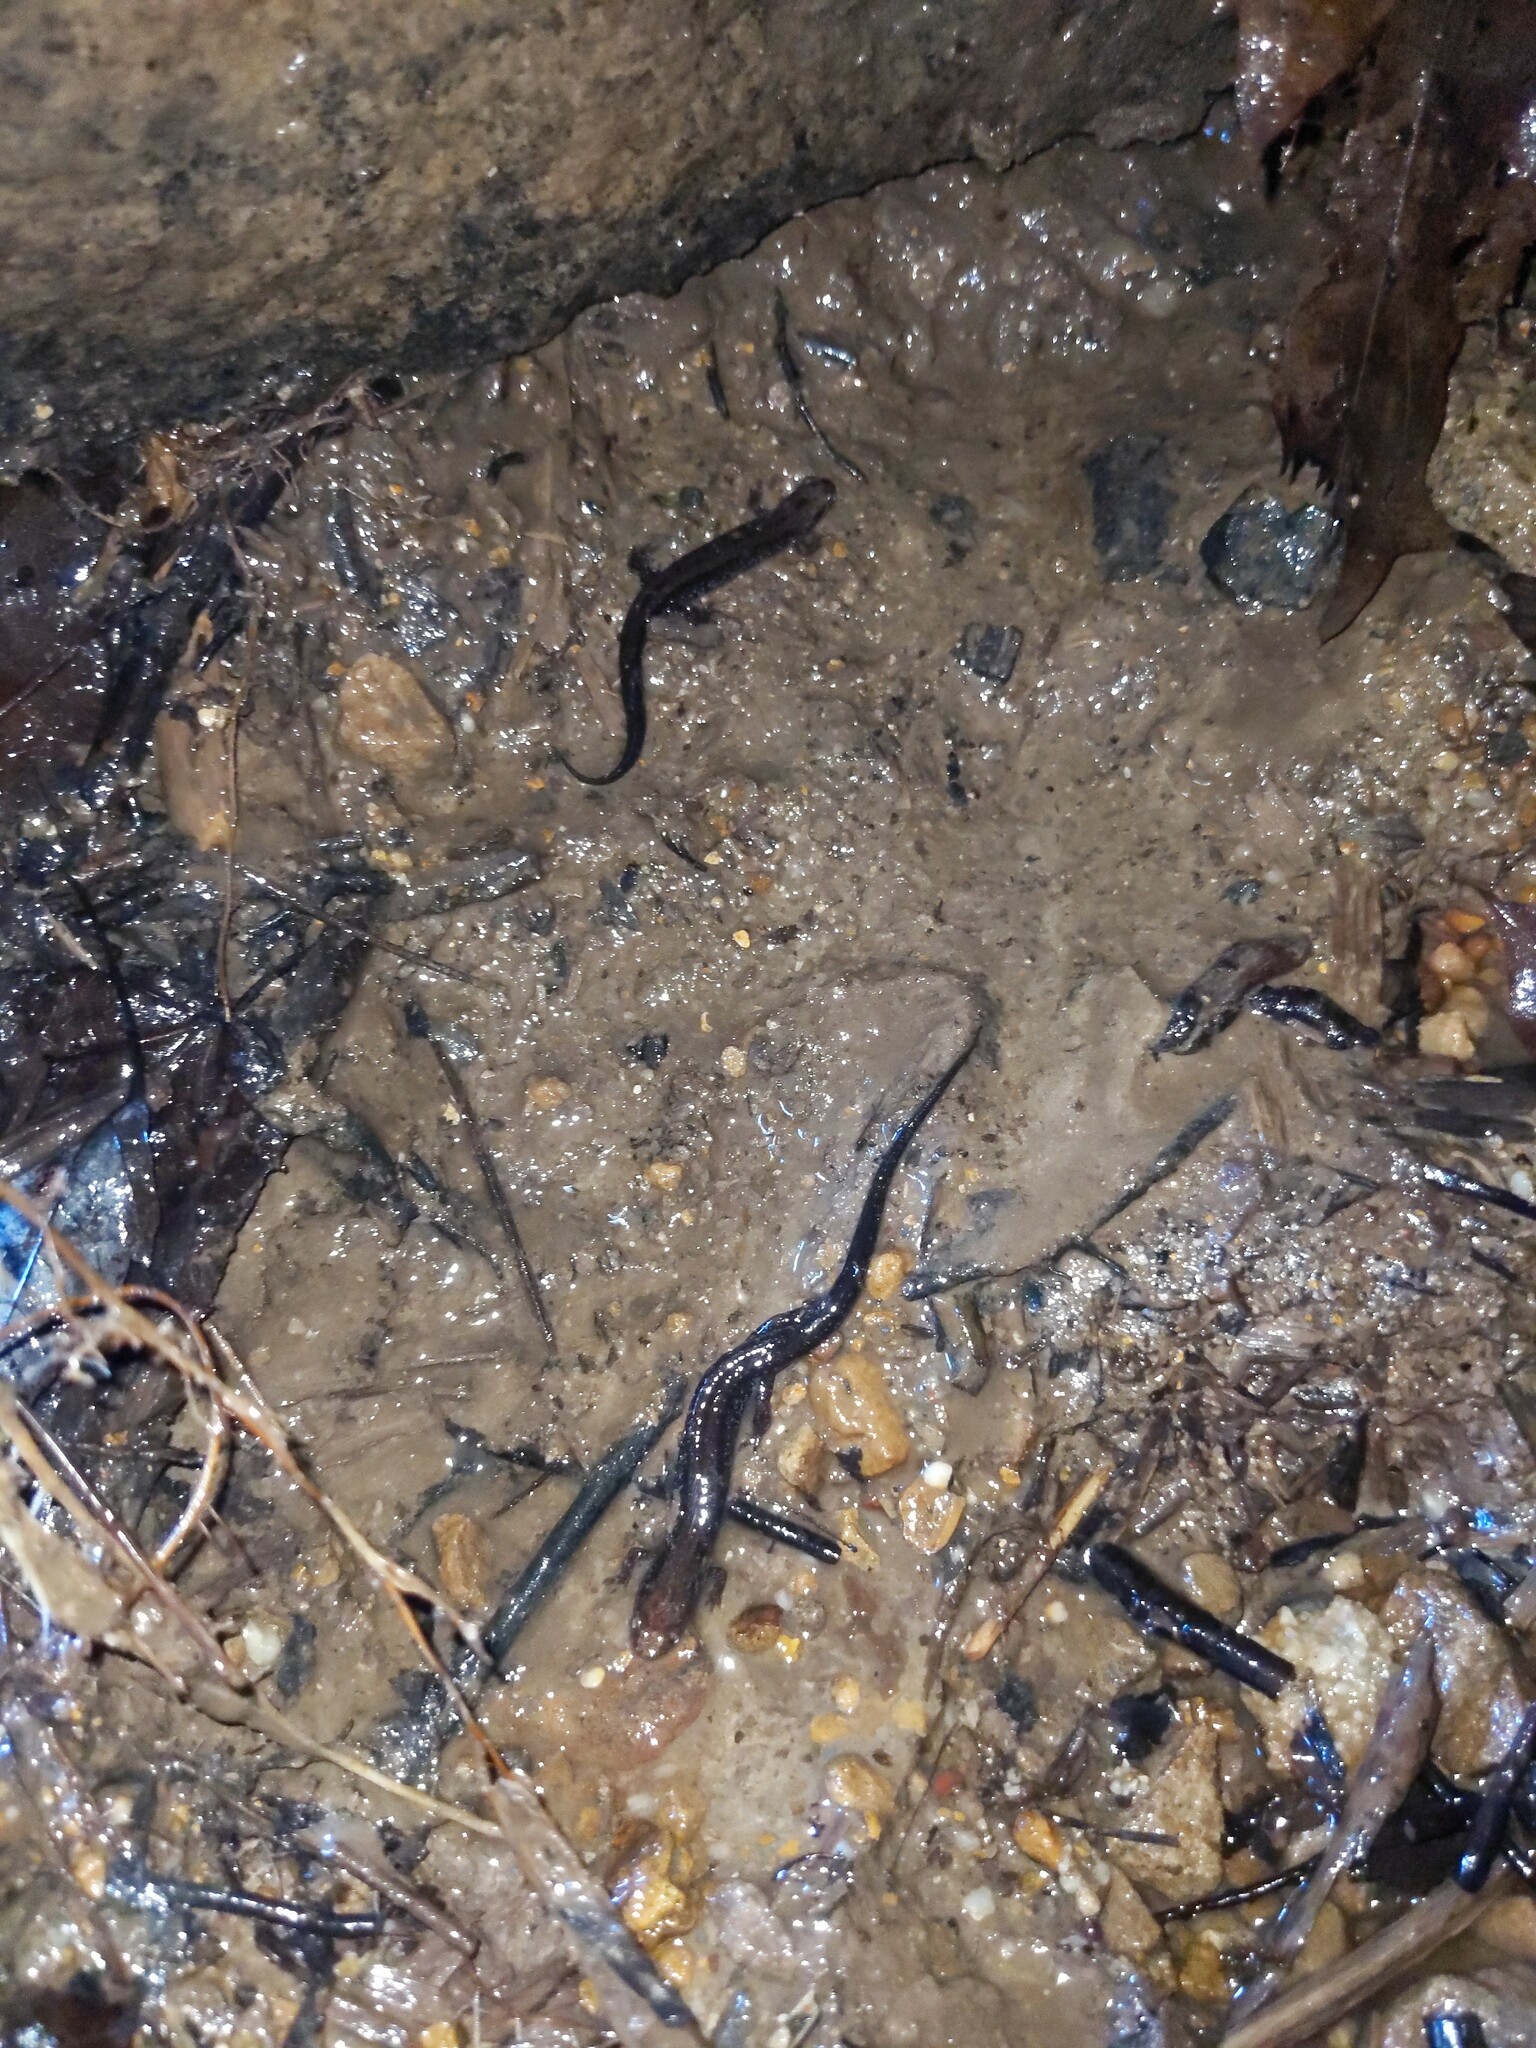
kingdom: Animalia
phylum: Chordata
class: Amphibia
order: Caudata
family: Plethodontidae
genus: Desmognathus
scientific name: Desmognathus ochrophaeus
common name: Allegheny mountain dusky salamander
